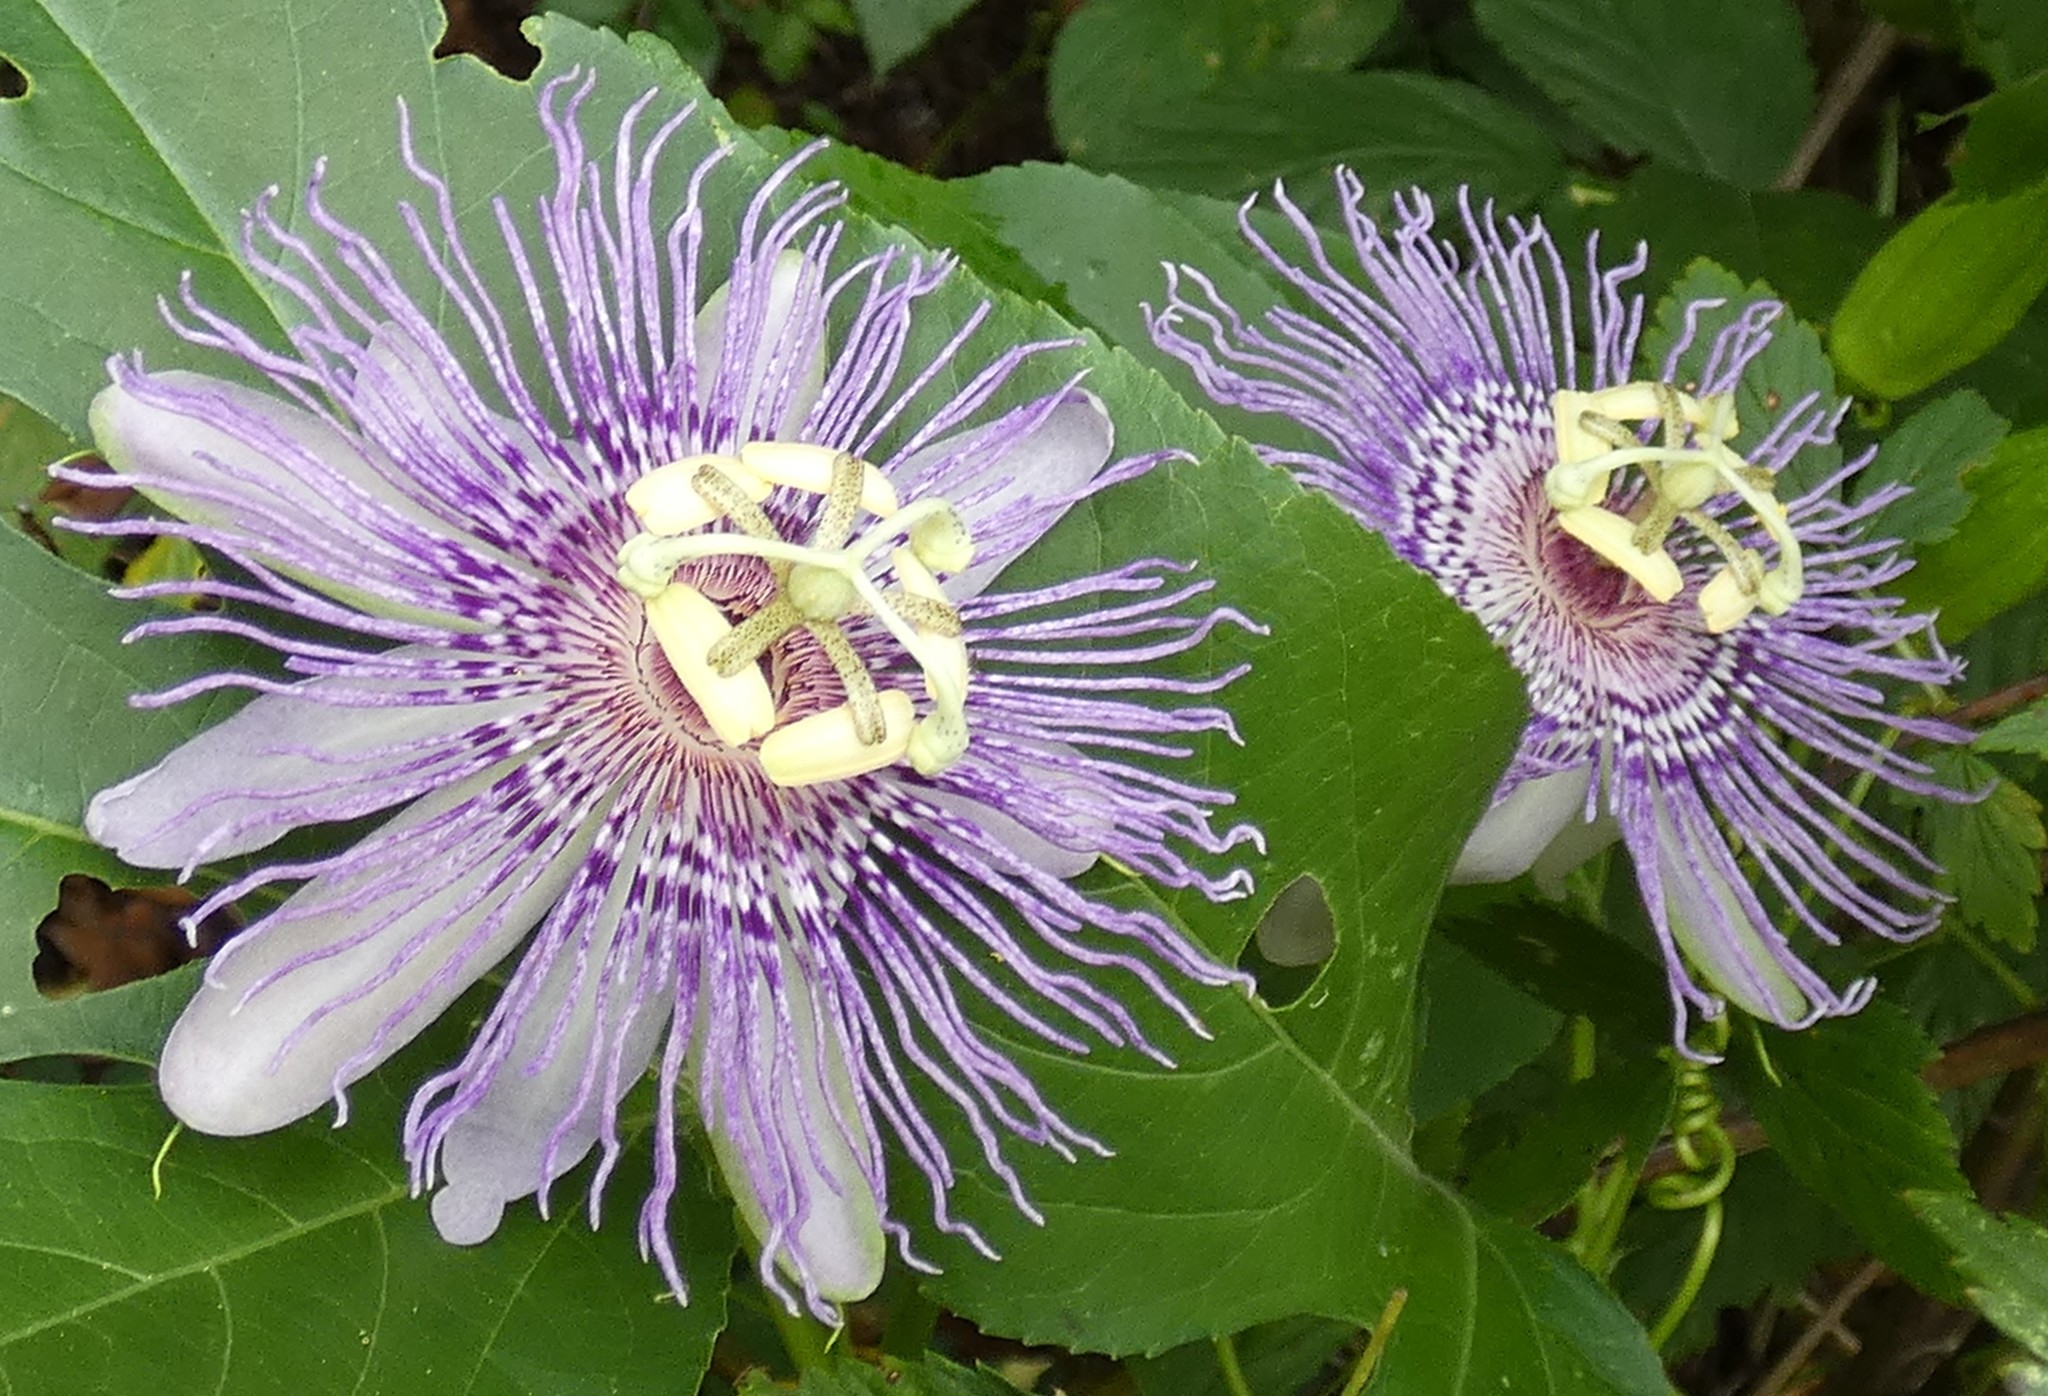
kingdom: Plantae
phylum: Tracheophyta
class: Magnoliopsida
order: Malpighiales
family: Passifloraceae
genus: Passiflora
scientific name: Passiflora incarnata
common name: Apricot-vine
